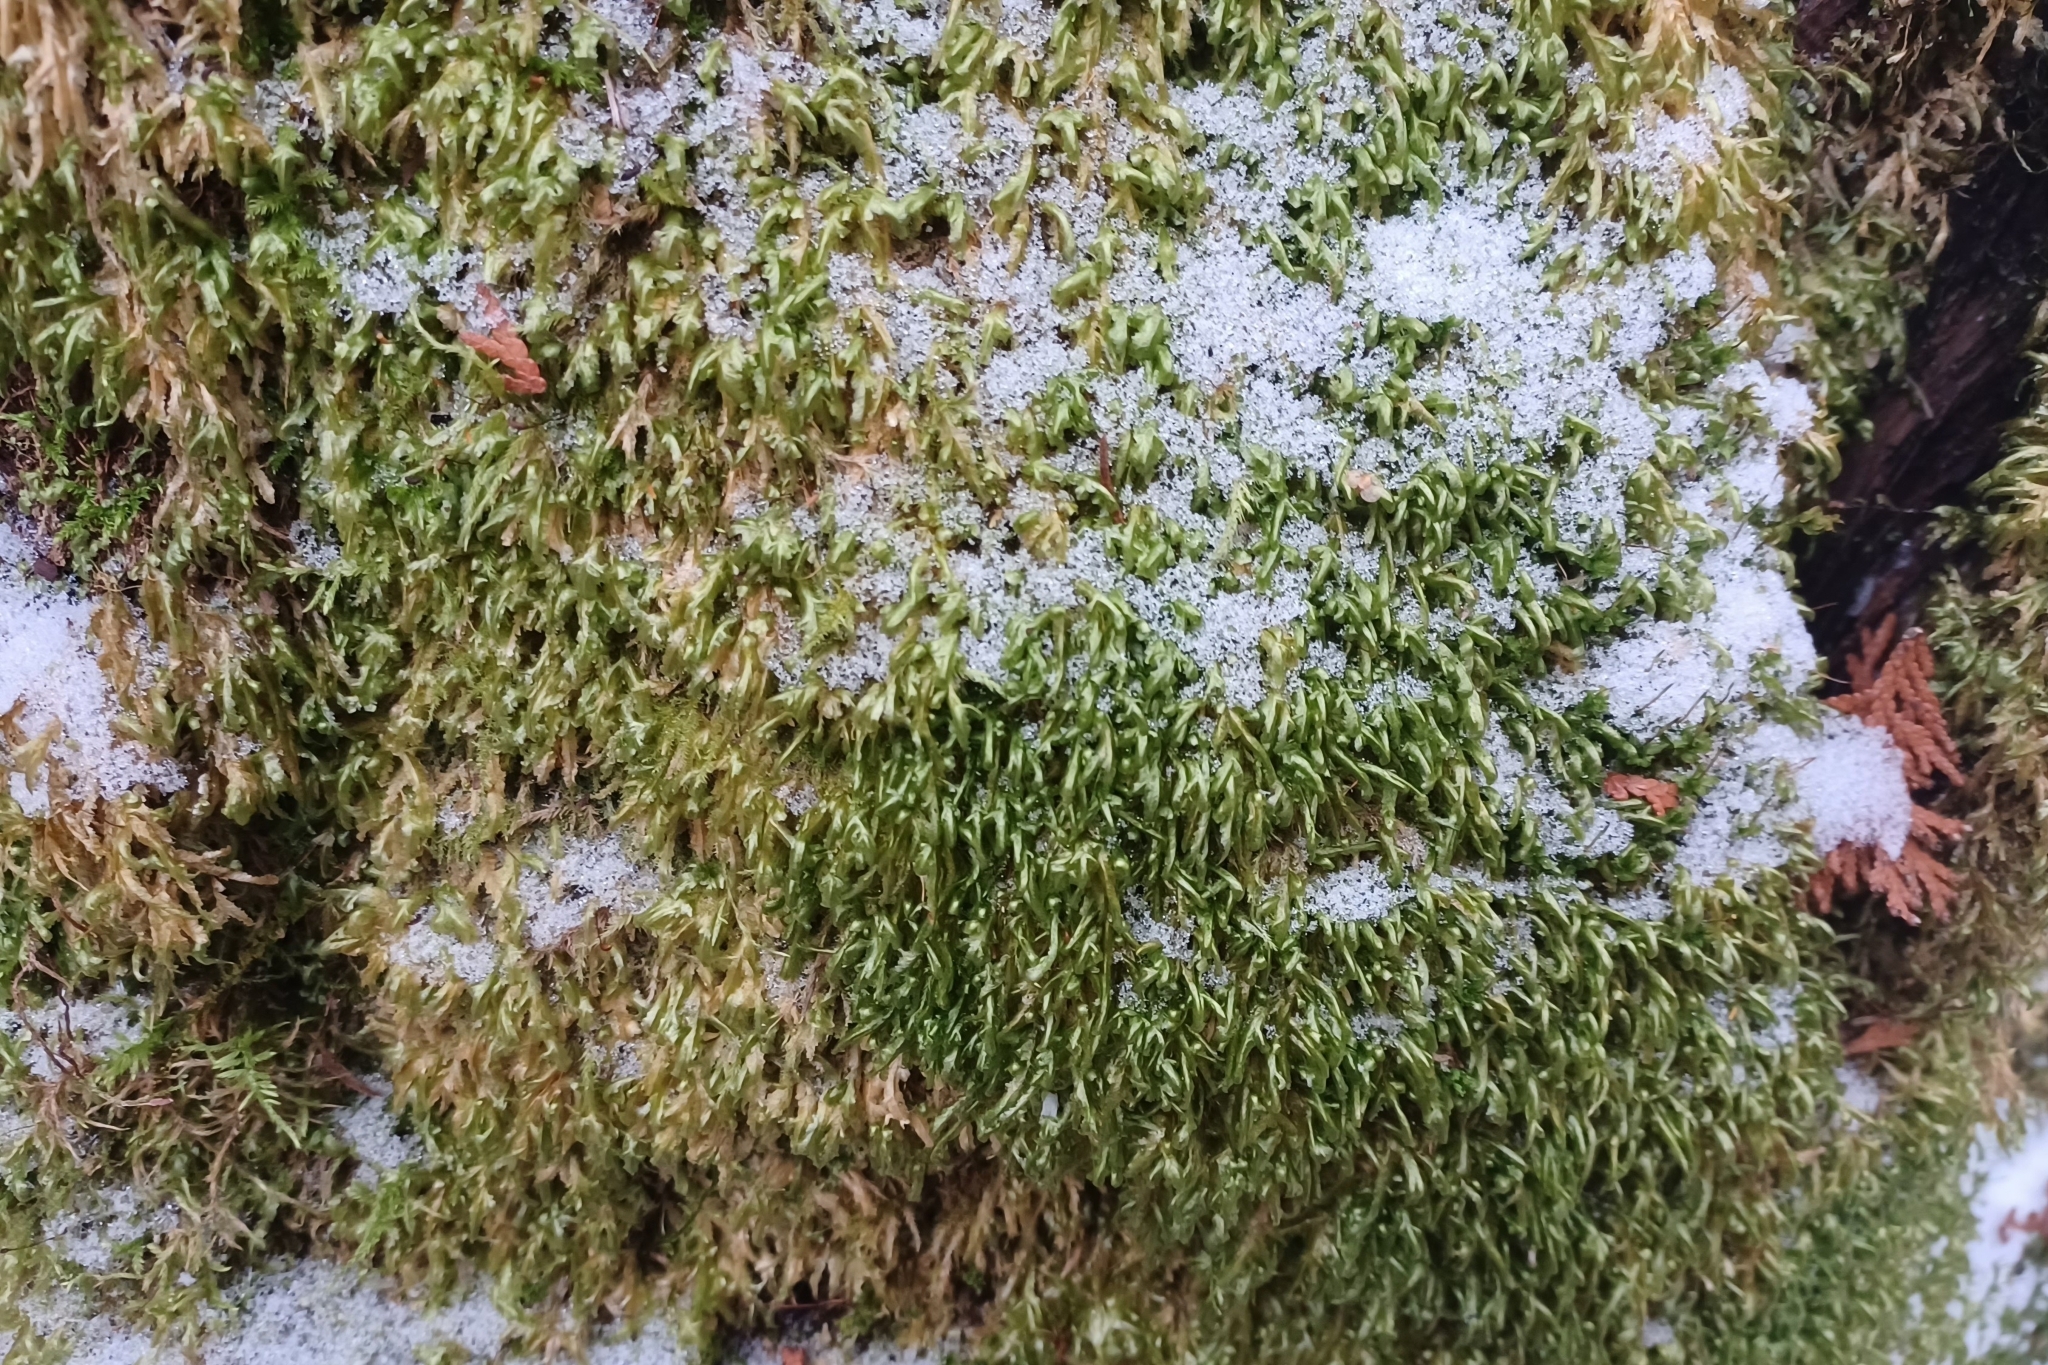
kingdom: Plantae
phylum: Bryophyta
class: Bryopsida
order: Hypnales
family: Neckeraceae
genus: Homalia
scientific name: Homalia trichomanoides
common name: Lime homalia moss
